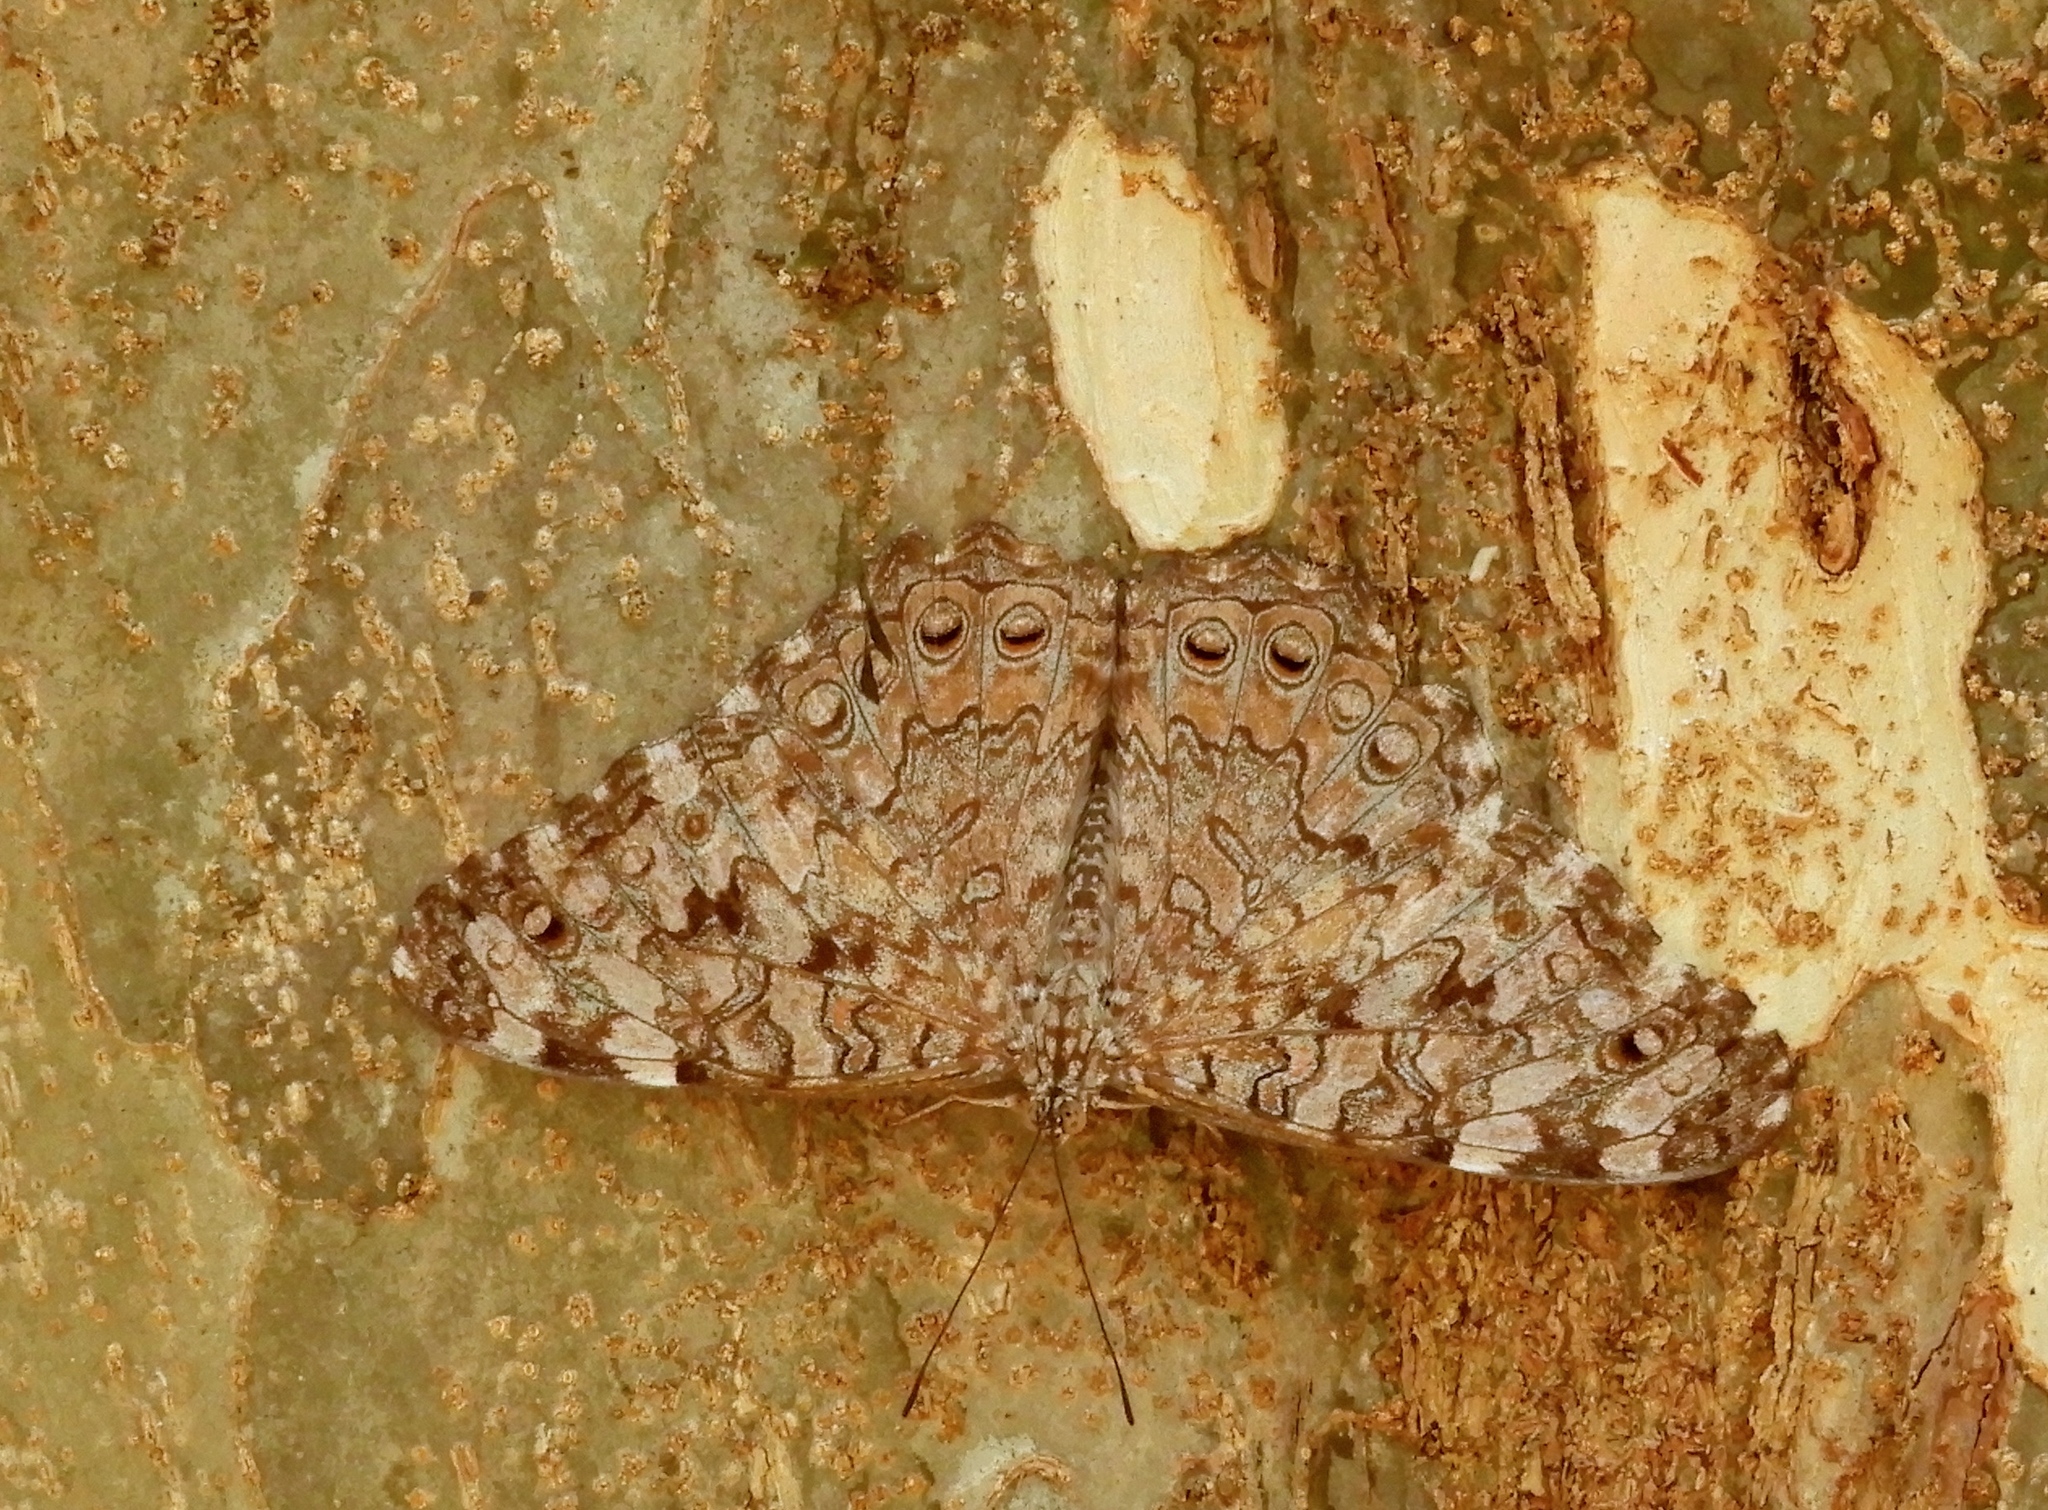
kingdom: Animalia
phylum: Arthropoda
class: Insecta
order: Lepidoptera
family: Nymphalidae
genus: Hamadryas
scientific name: Hamadryas februa
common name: Gray cracker
